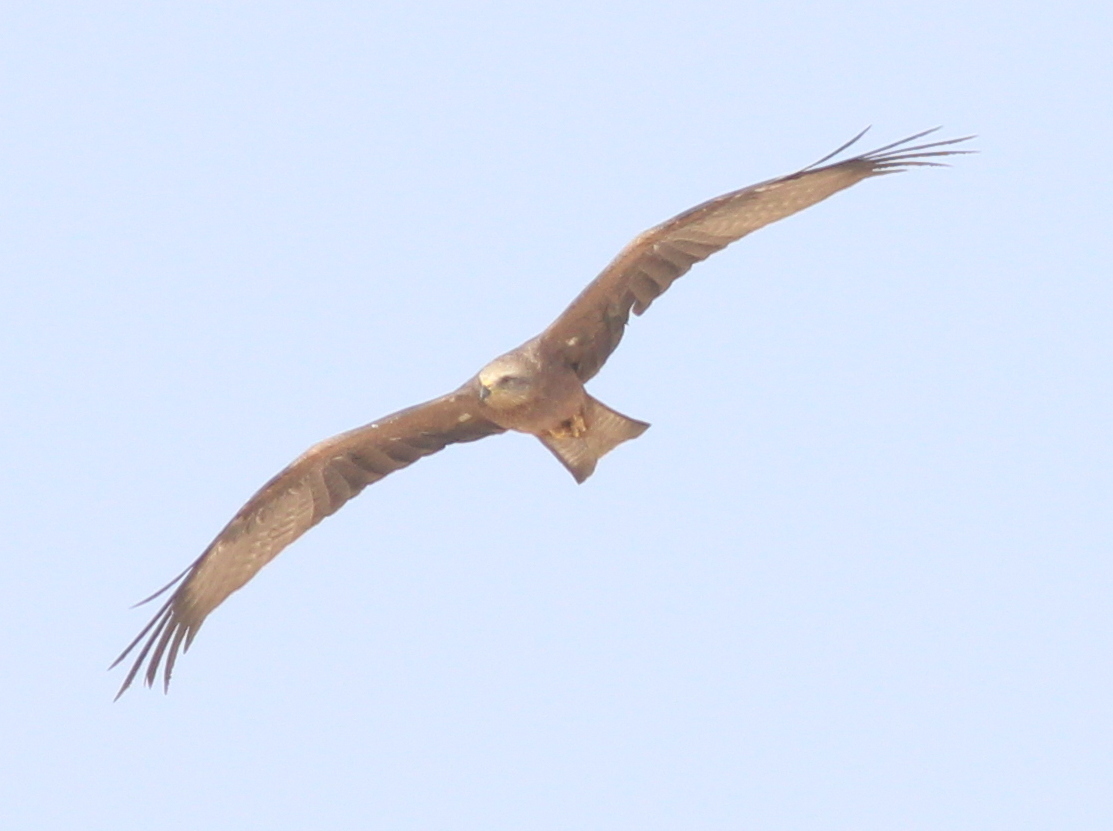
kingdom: Animalia
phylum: Chordata
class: Aves
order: Accipitriformes
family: Accipitridae
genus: Milvus
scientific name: Milvus migrans
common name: Black kite
